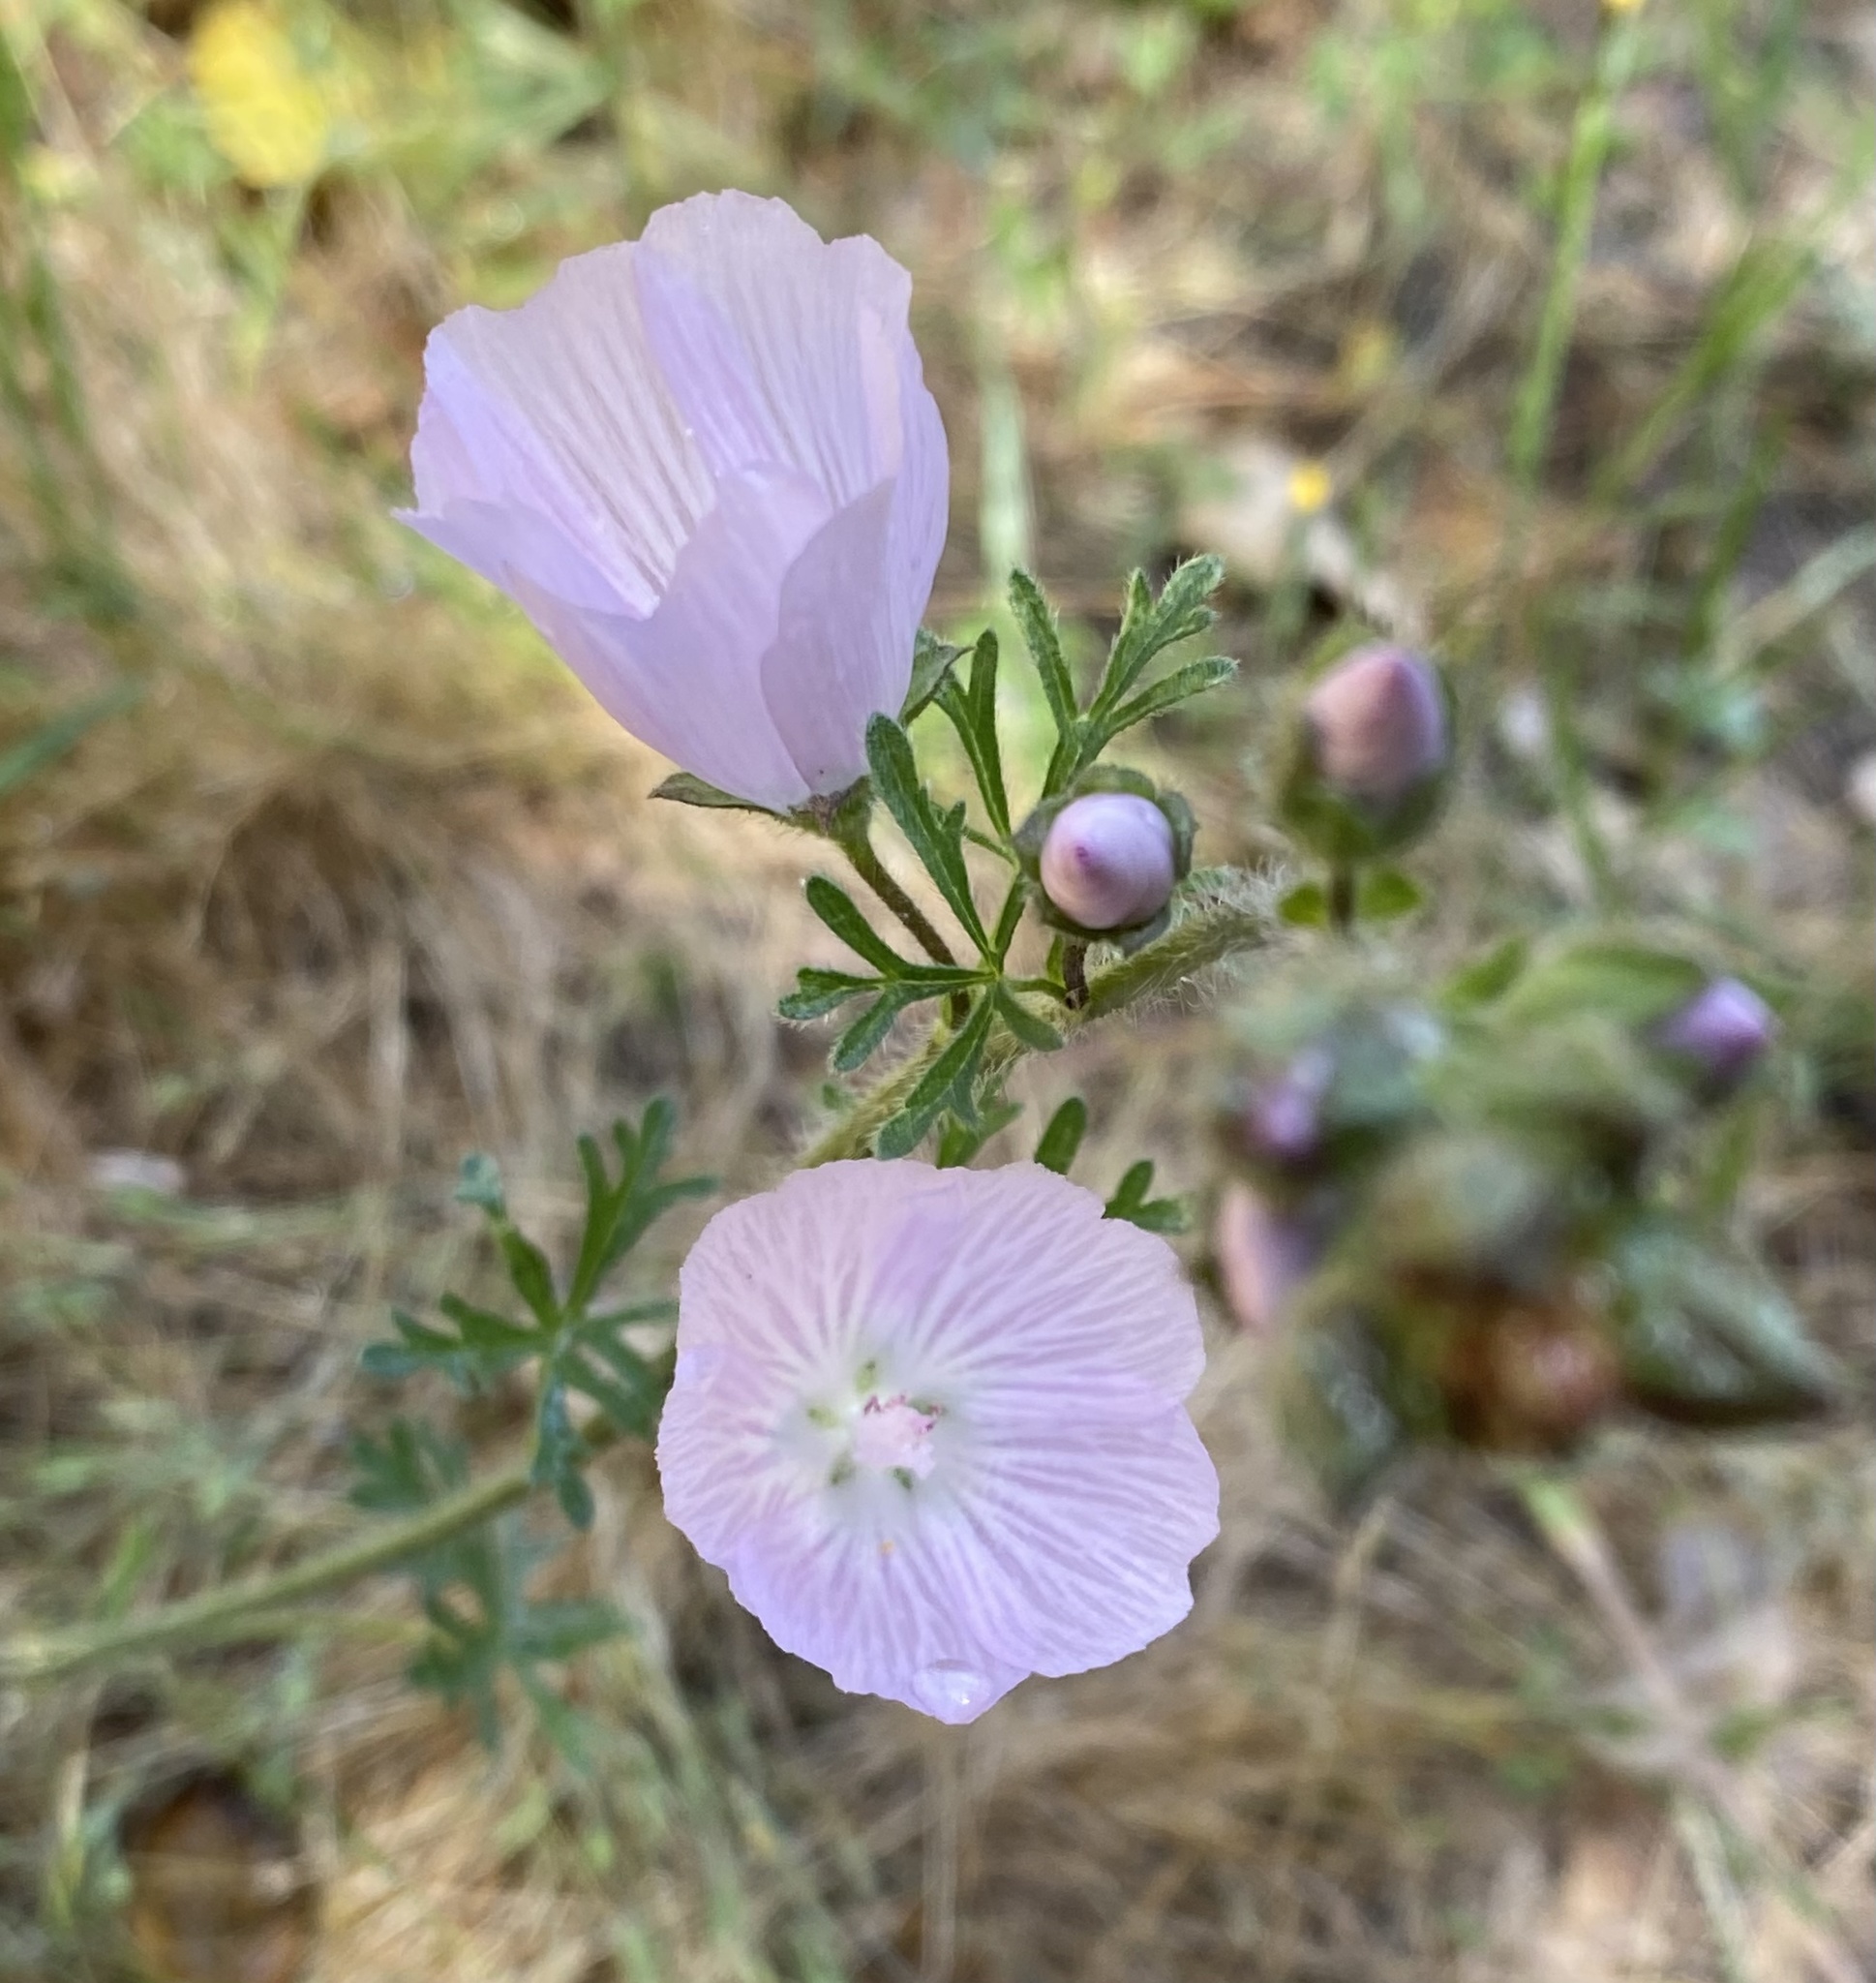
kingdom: Plantae
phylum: Tracheophyta
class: Magnoliopsida
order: Malvales
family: Malvaceae
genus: Sidalcea
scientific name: Sidalcea malviflora
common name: Greek mallow
